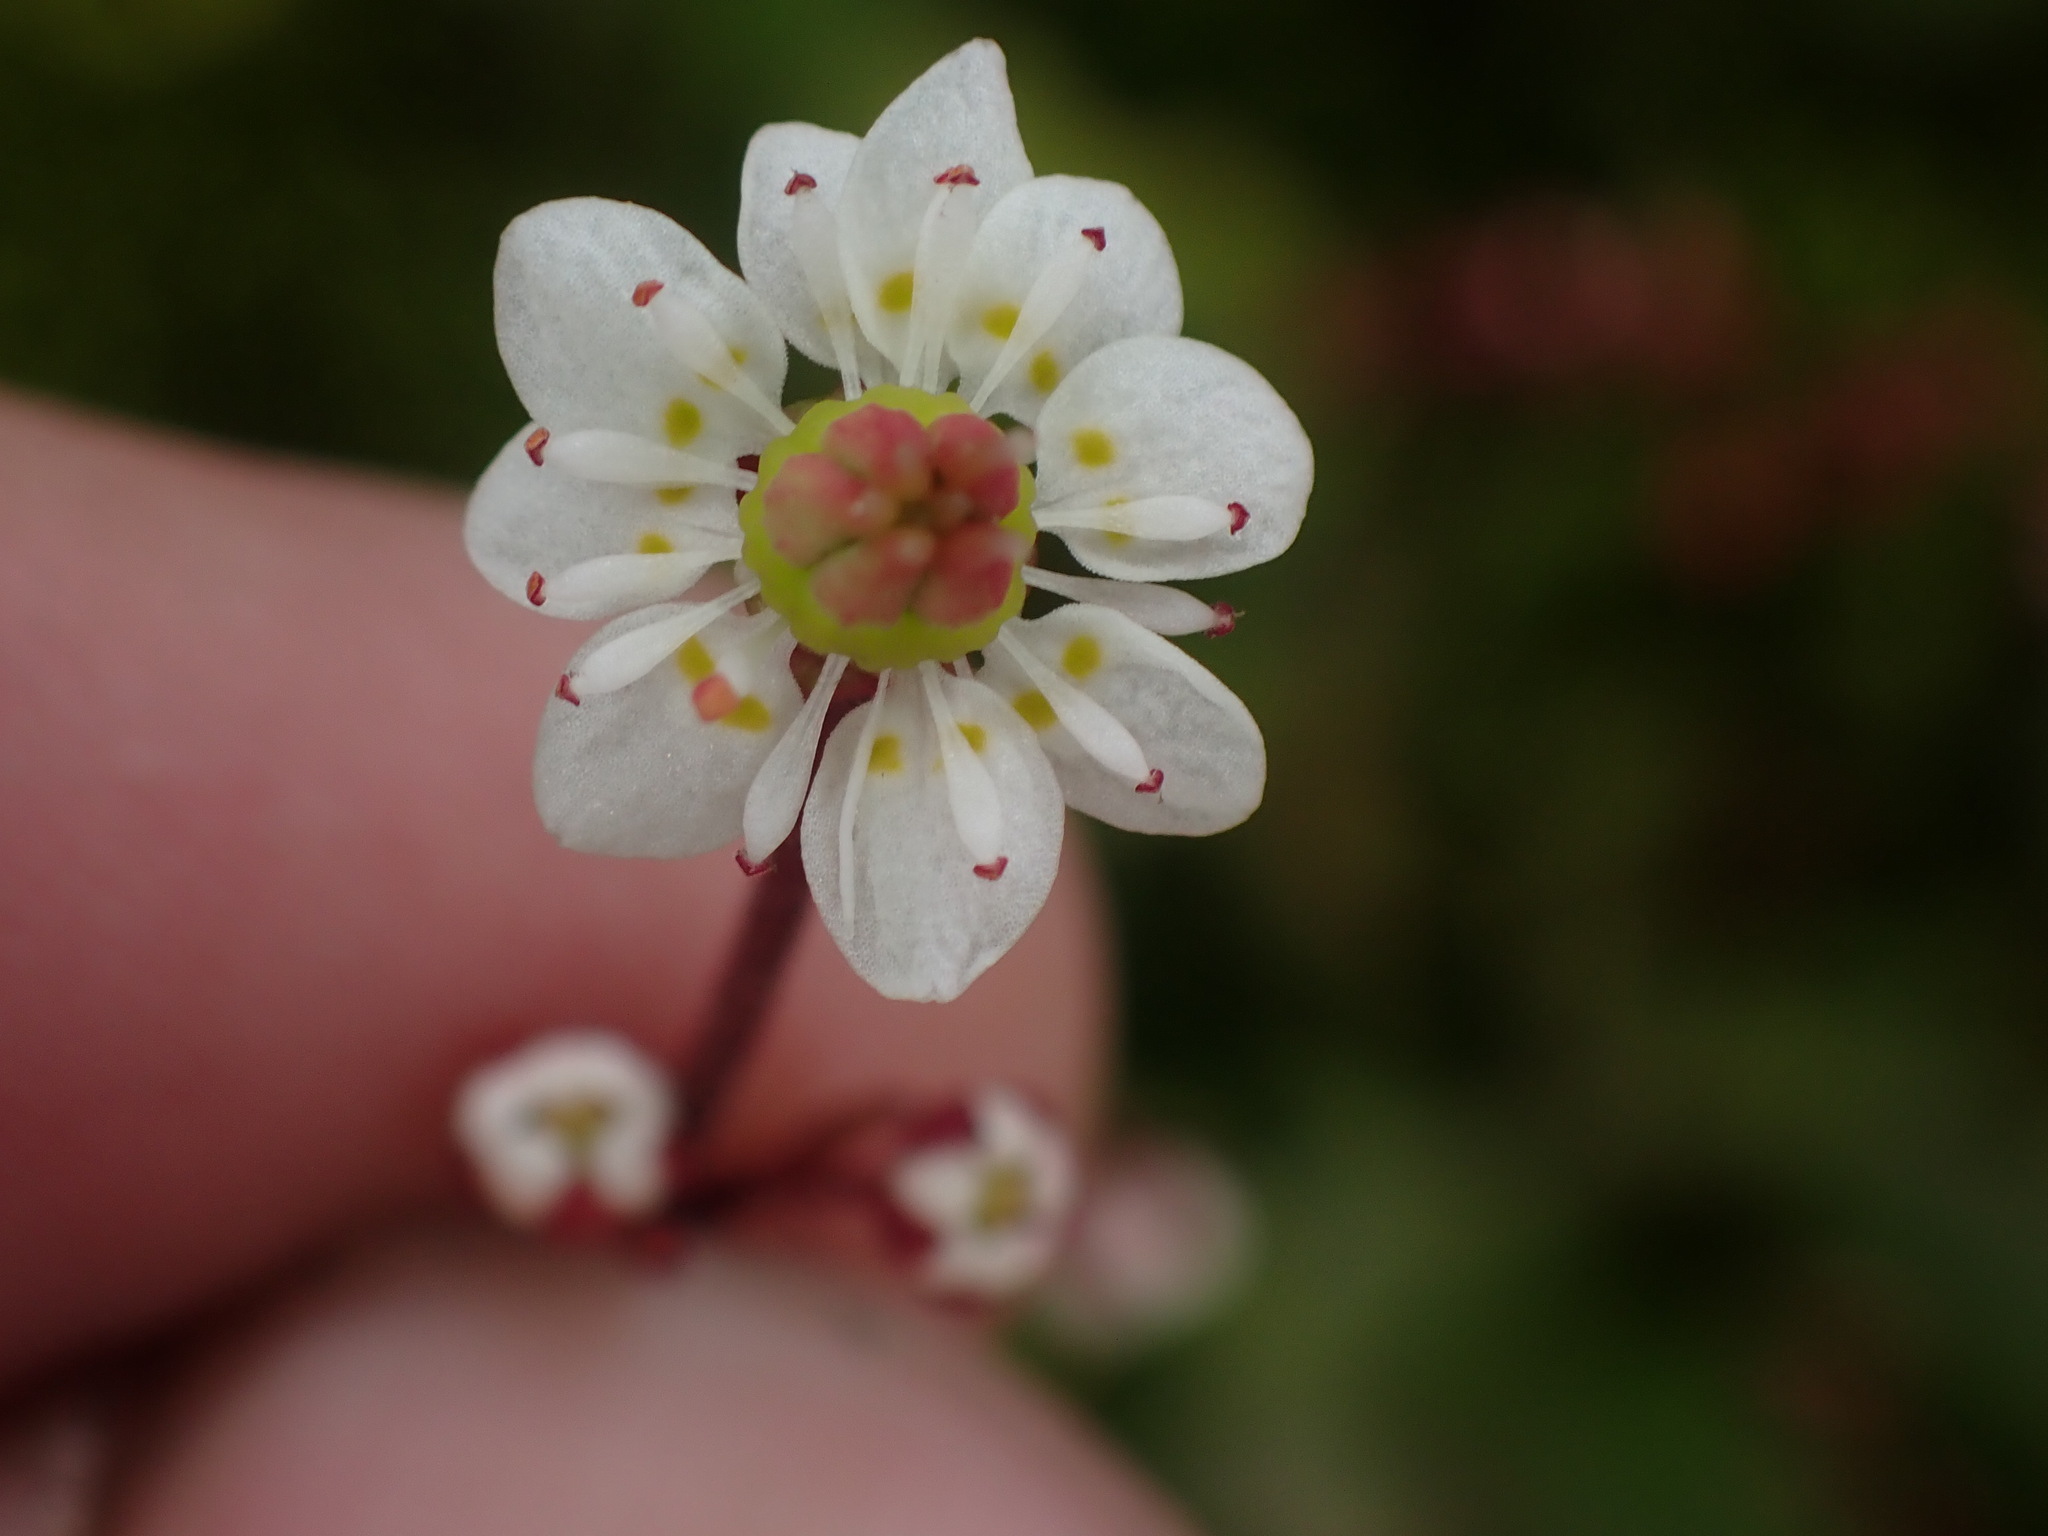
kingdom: Plantae
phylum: Tracheophyta
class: Magnoliopsida
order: Saxifragales
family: Saxifragaceae
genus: Micranthes
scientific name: Micranthes lyallii
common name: Lyall's saxifrage
